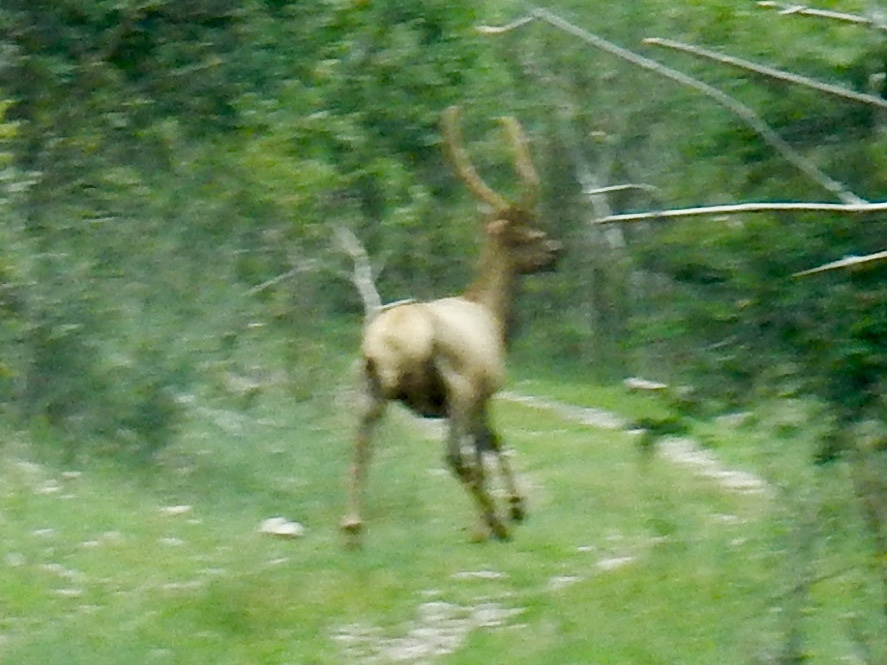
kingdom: Animalia
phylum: Chordata
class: Mammalia
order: Artiodactyla
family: Cervidae
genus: Cervus
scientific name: Cervus elaphus
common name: Red deer
